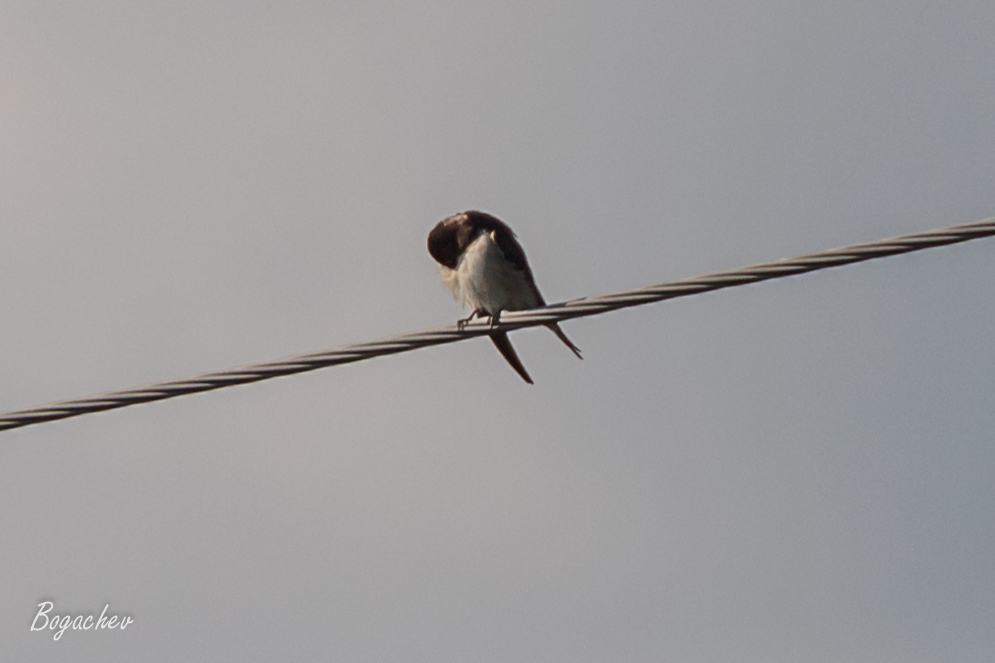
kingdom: Animalia
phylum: Chordata
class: Aves
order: Passeriformes
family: Hirundinidae
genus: Hirundo
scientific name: Hirundo rustica
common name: Barn swallow
